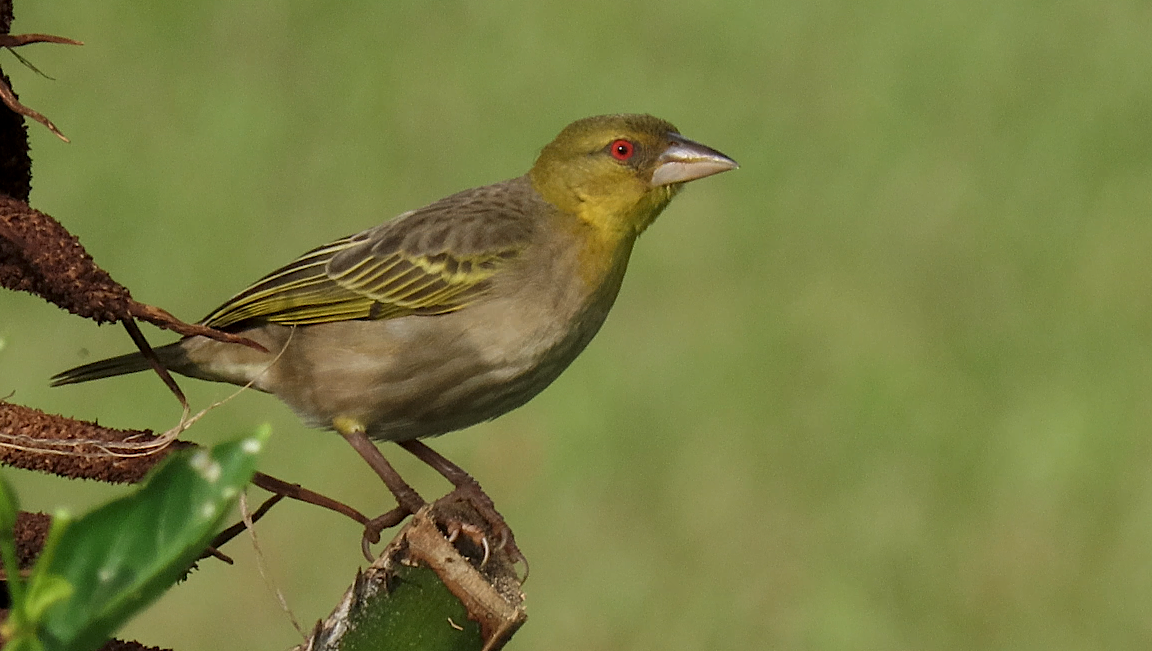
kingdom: Animalia
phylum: Chordata
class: Aves
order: Passeriformes
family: Ploceidae
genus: Ploceus
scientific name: Ploceus cucullatus
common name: Village weaver
